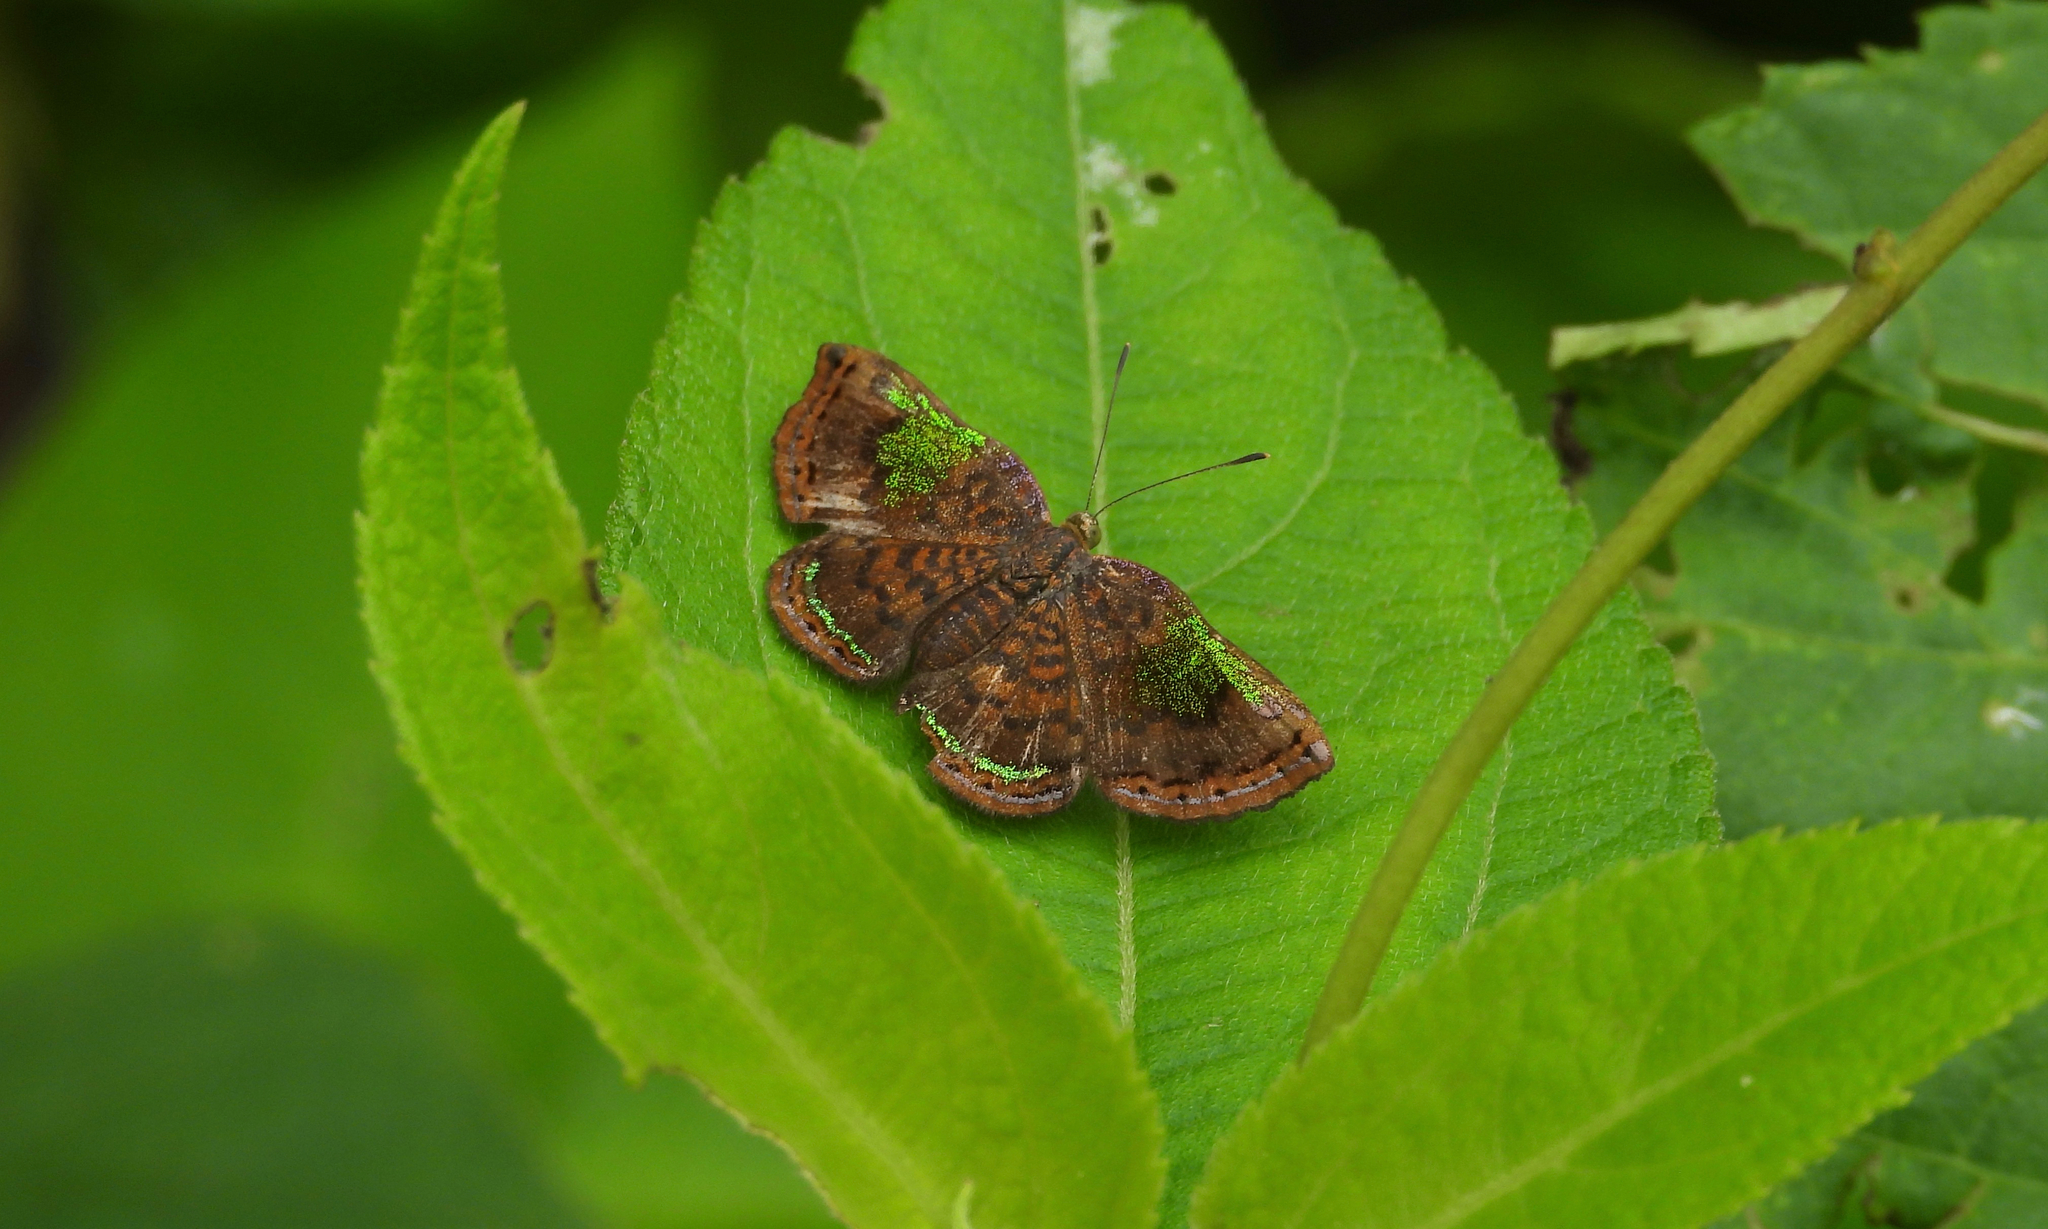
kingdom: Animalia
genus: Caria
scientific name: Caria rhacotis
